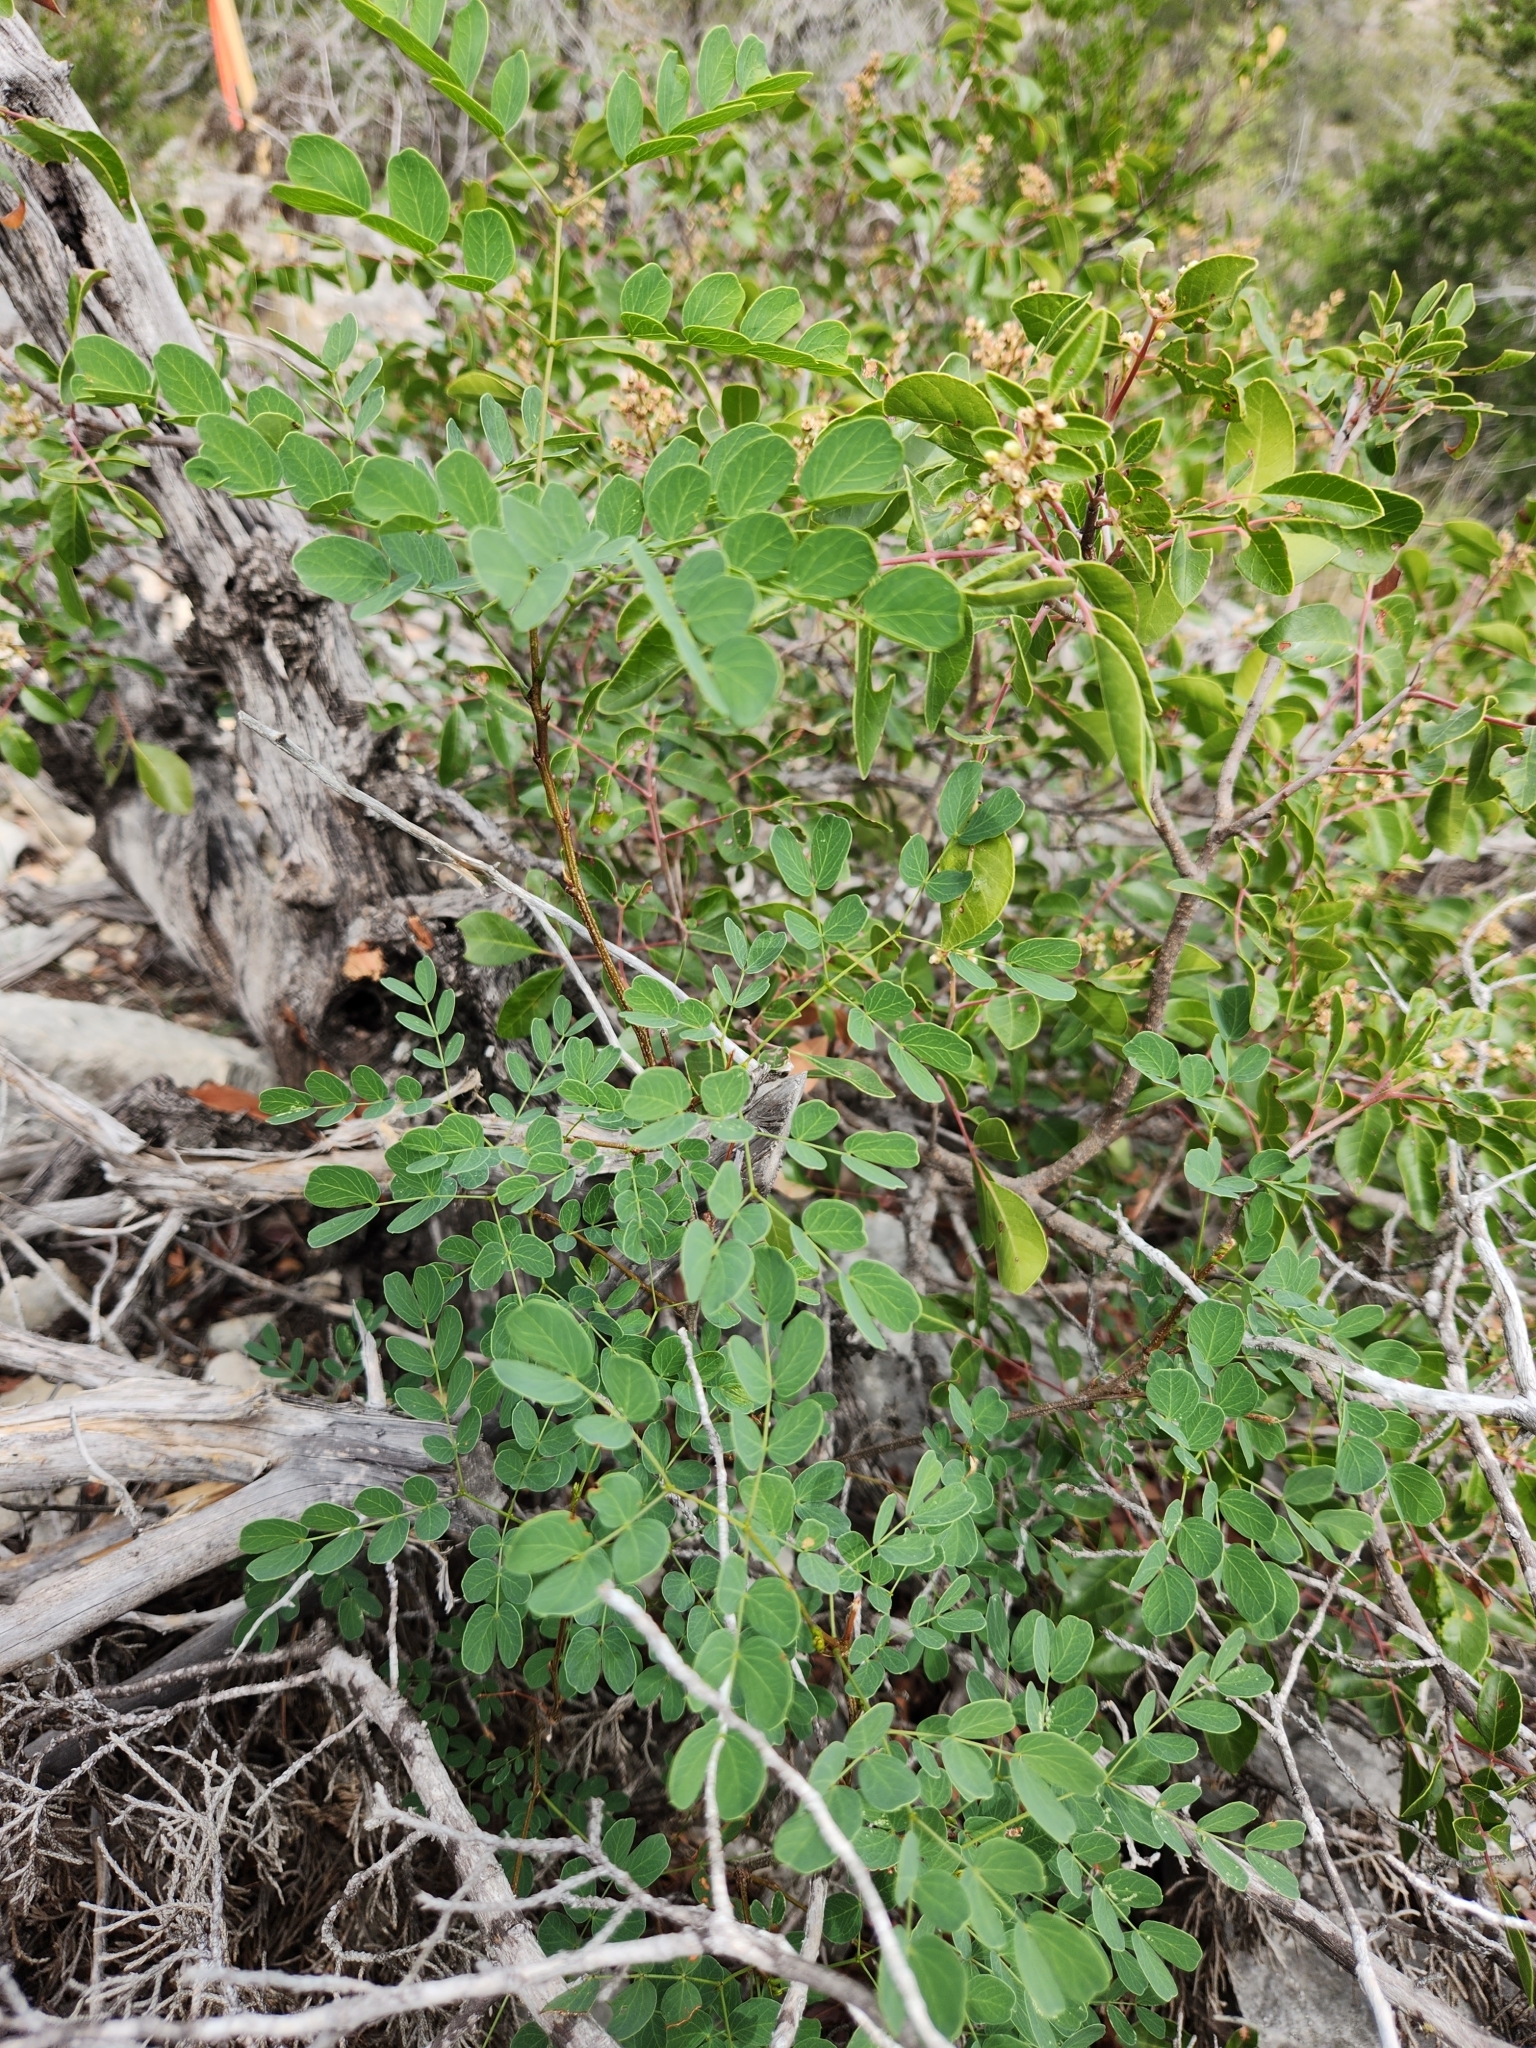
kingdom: Plantae
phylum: Tracheophyta
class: Magnoliopsida
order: Fabales
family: Fabaceae
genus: Leucaena
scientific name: Leucaena retusa
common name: Littleleaf leadtree
